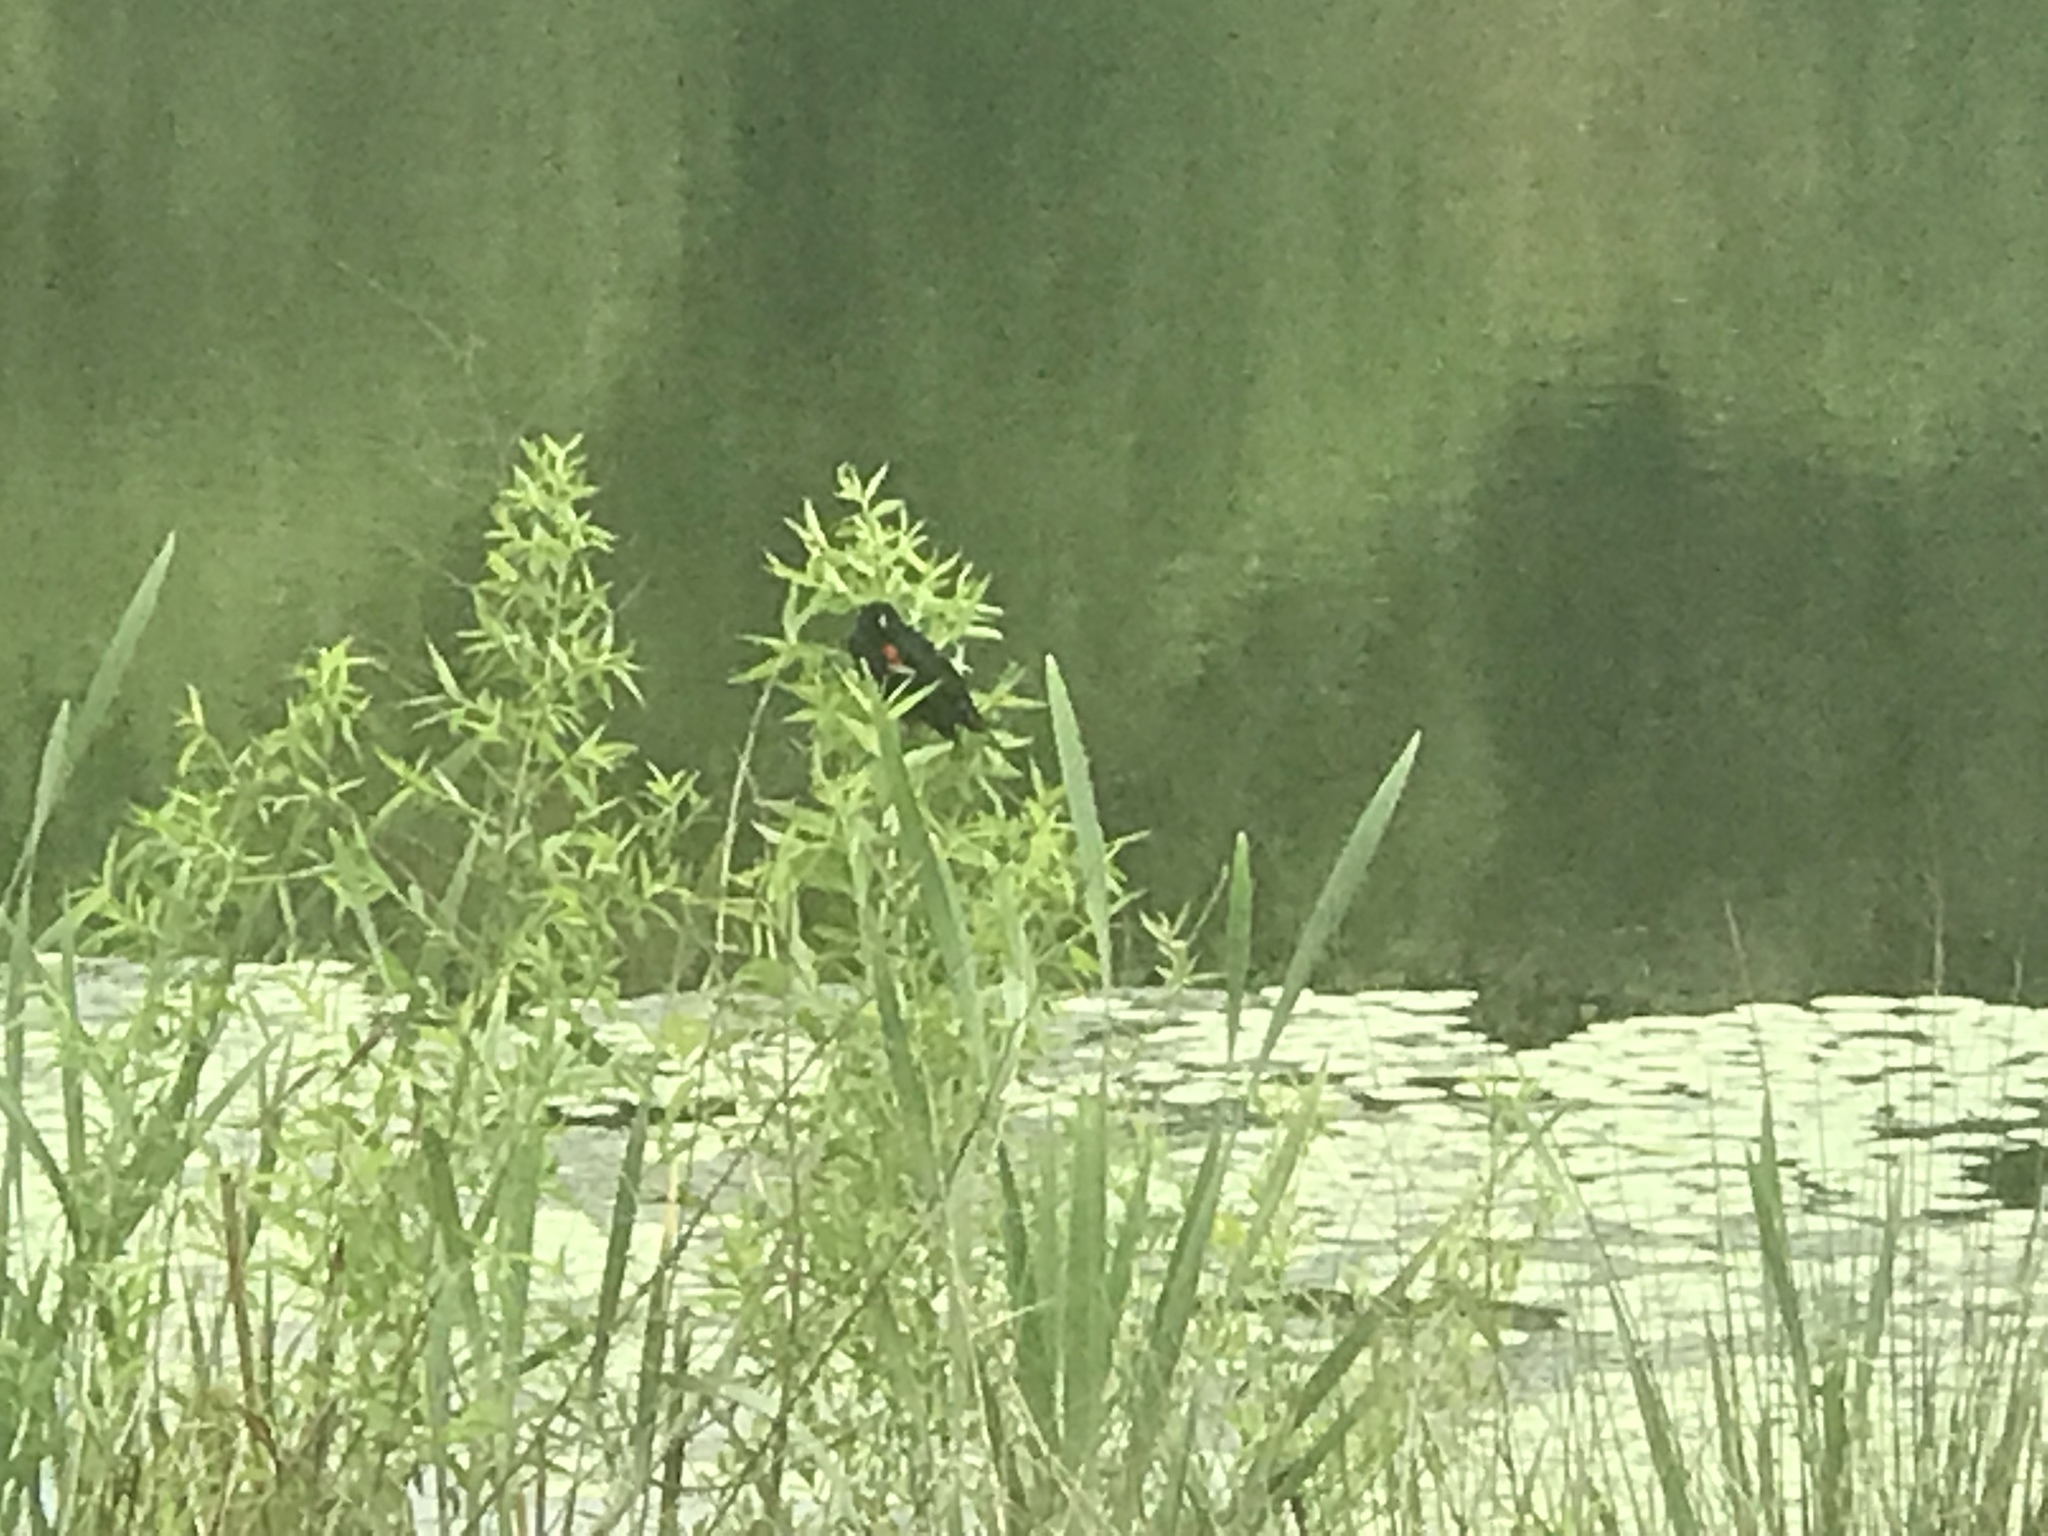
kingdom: Animalia
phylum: Chordata
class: Aves
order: Passeriformes
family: Icteridae
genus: Agelaius
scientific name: Agelaius phoeniceus
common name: Red-winged blackbird
